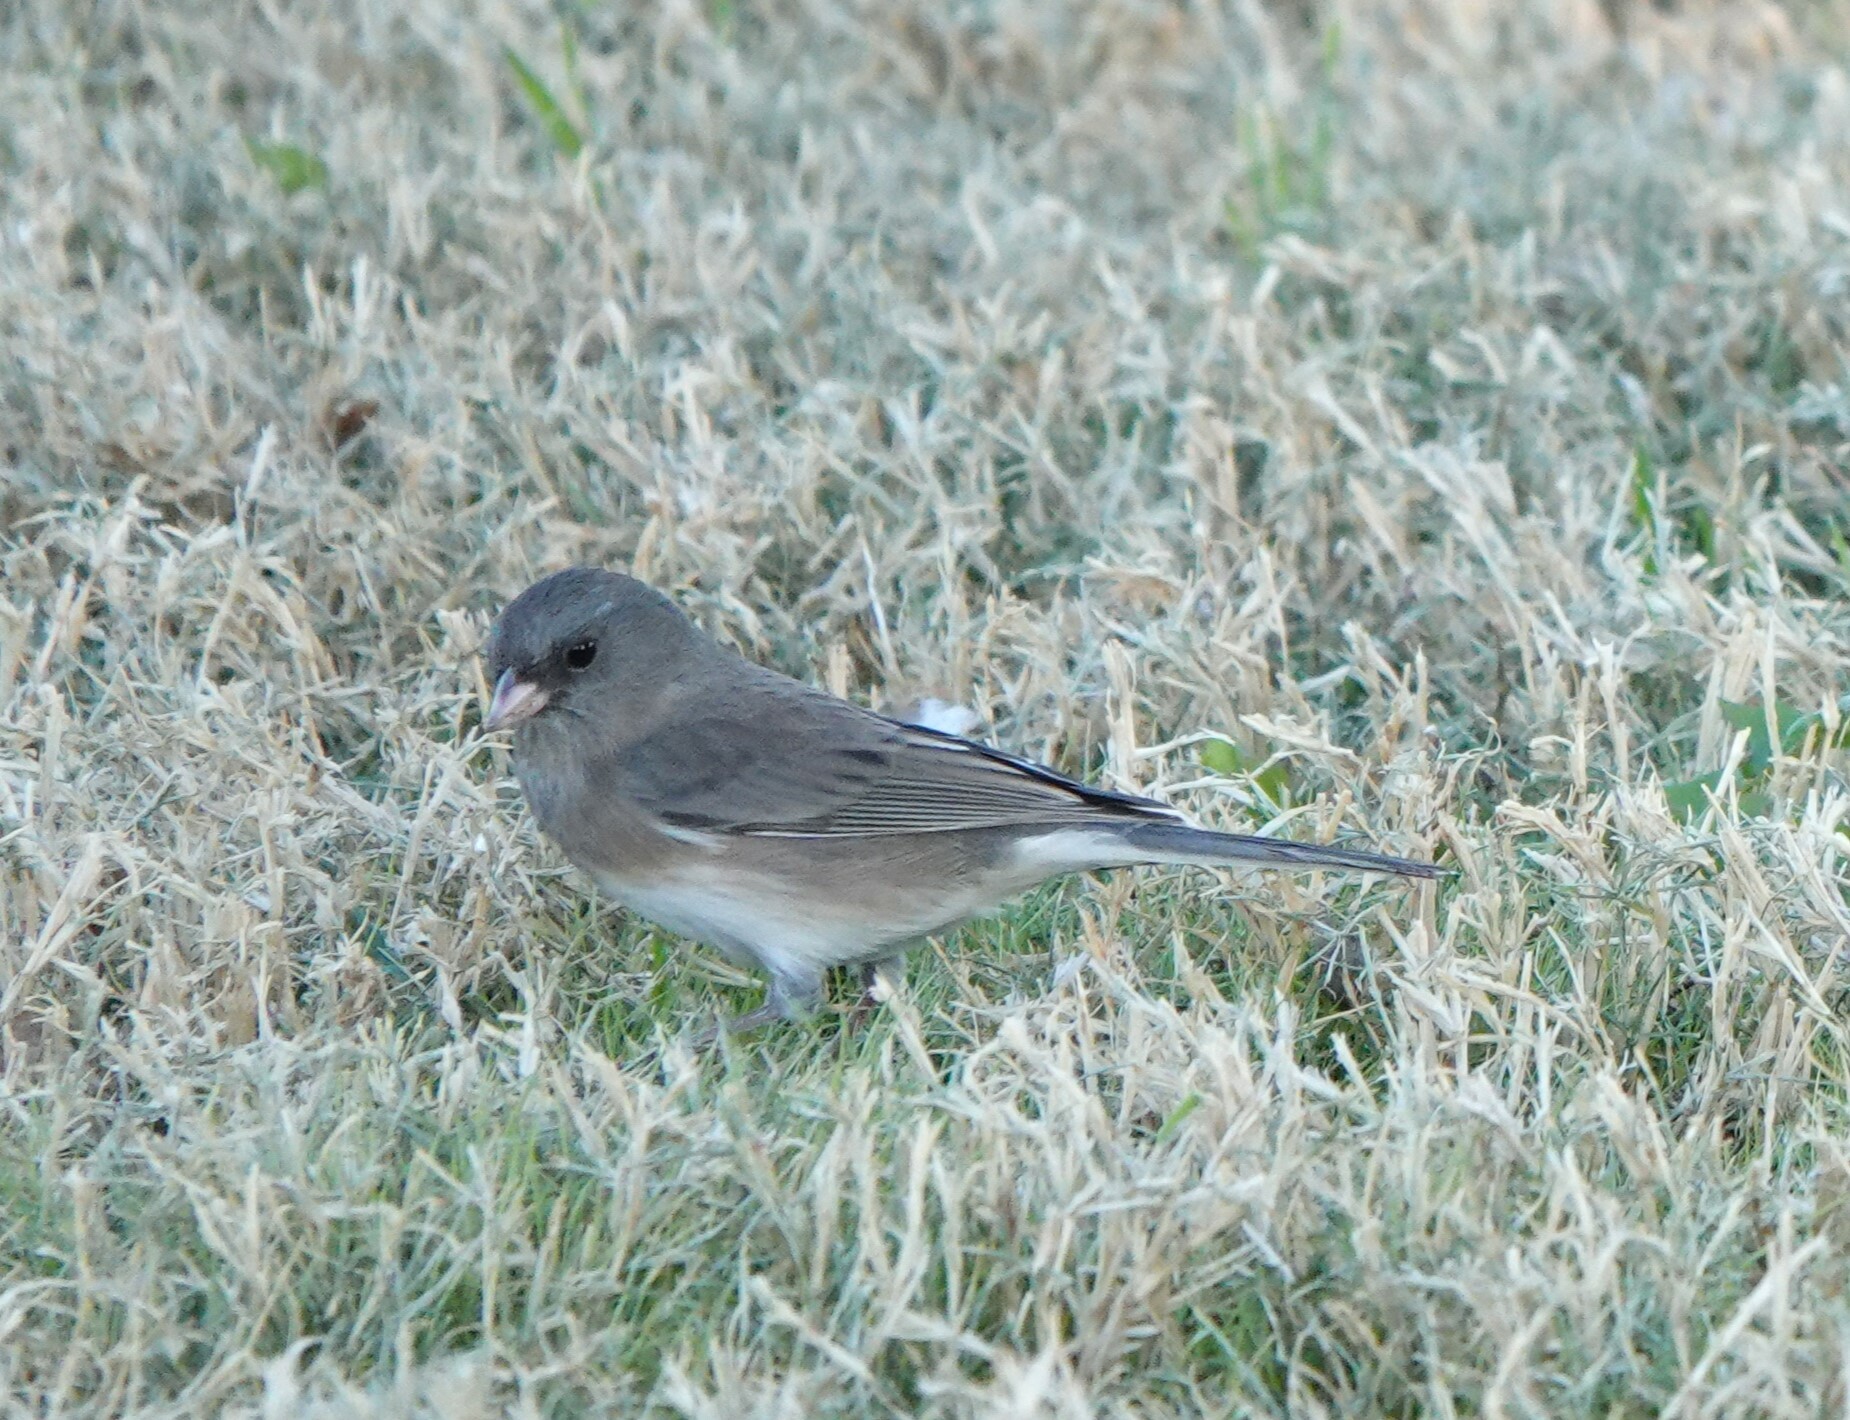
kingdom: Animalia
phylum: Chordata
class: Aves
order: Passeriformes
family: Passerellidae
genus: Junco
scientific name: Junco hyemalis
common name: Dark-eyed junco
